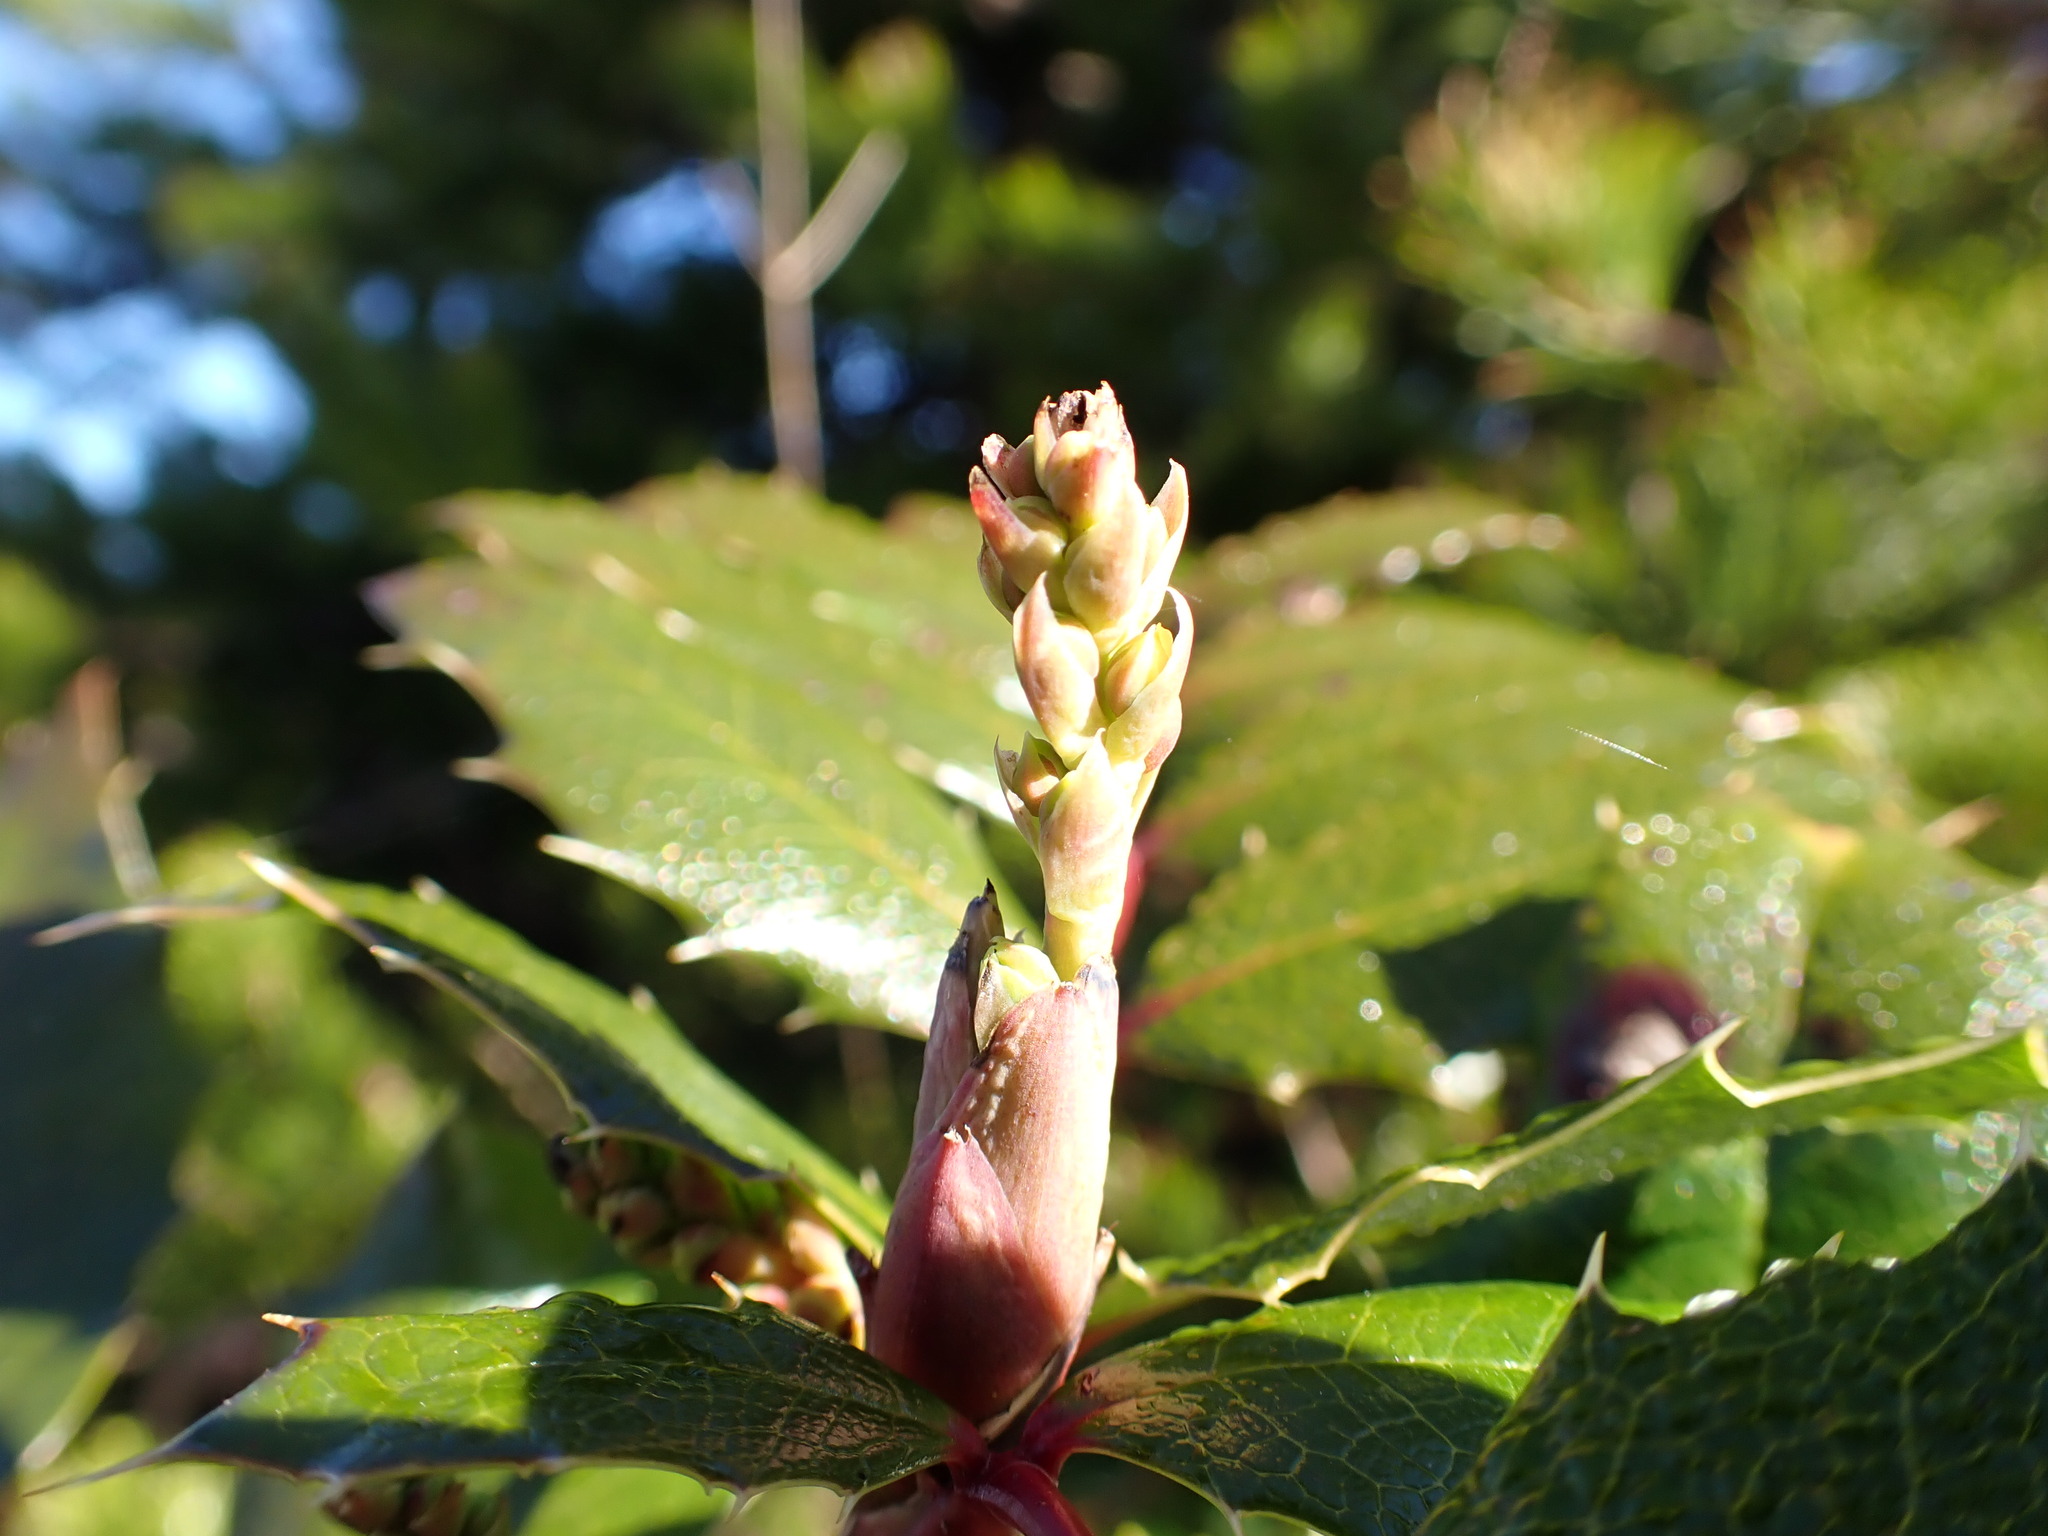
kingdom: Plantae
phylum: Tracheophyta
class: Magnoliopsida
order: Ranunculales
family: Berberidaceae
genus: Mahonia
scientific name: Mahonia aquifolium
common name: Oregon-grape
